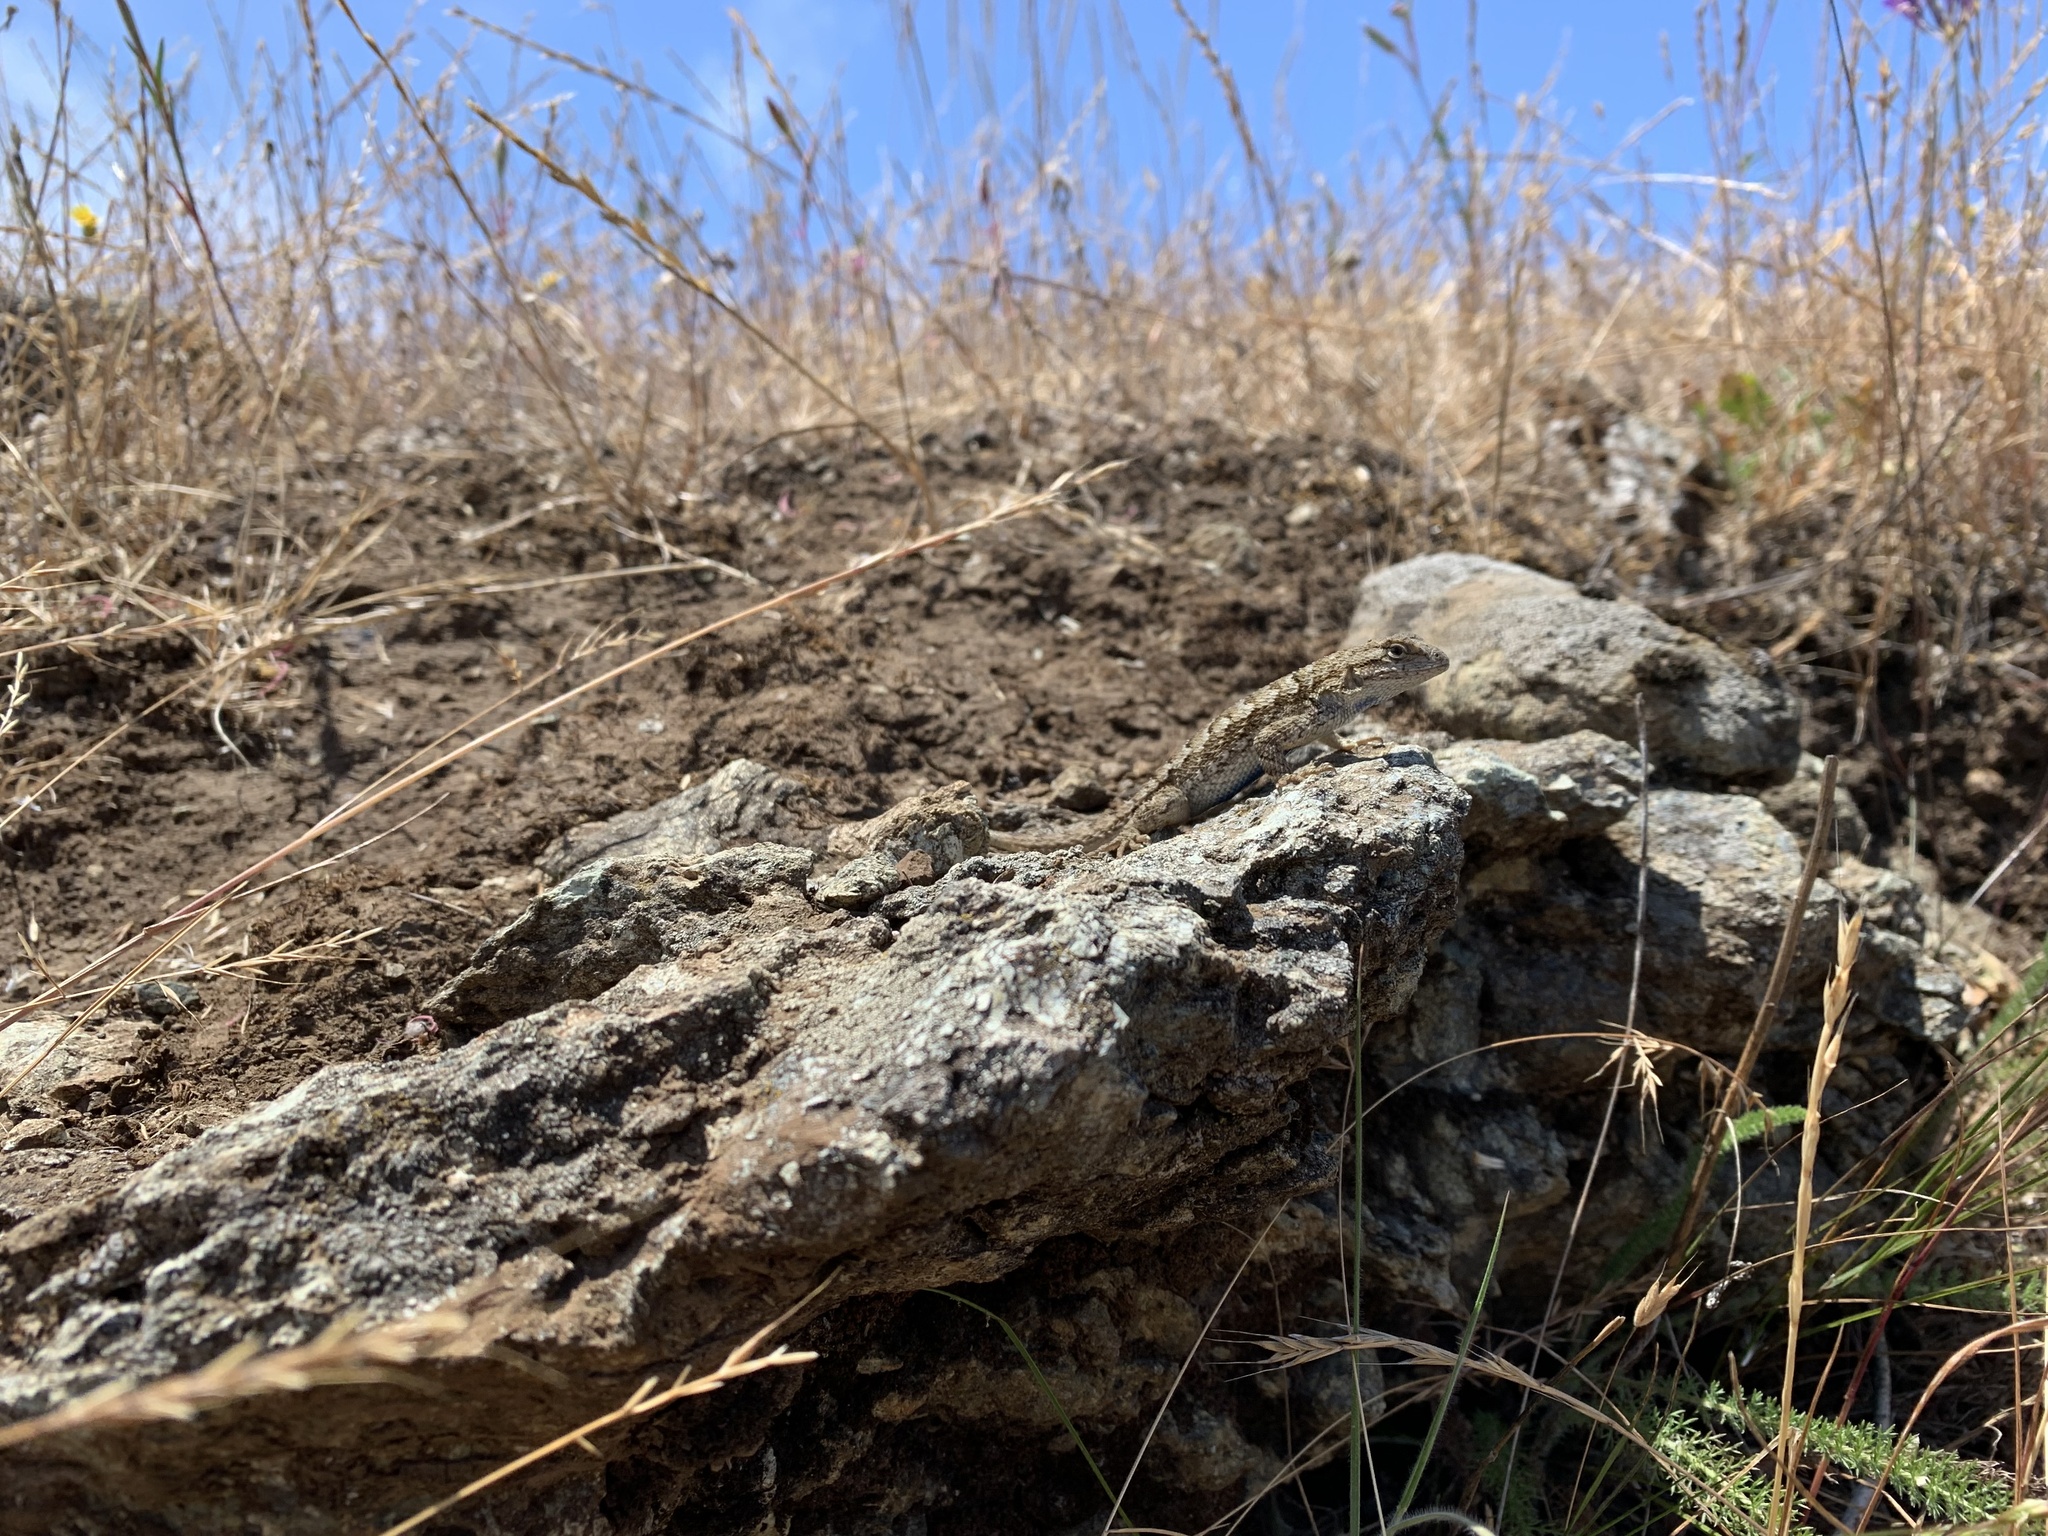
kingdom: Animalia
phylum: Chordata
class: Squamata
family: Phrynosomatidae
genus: Sceloporus
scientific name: Sceloporus occidentalis
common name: Western fence lizard
